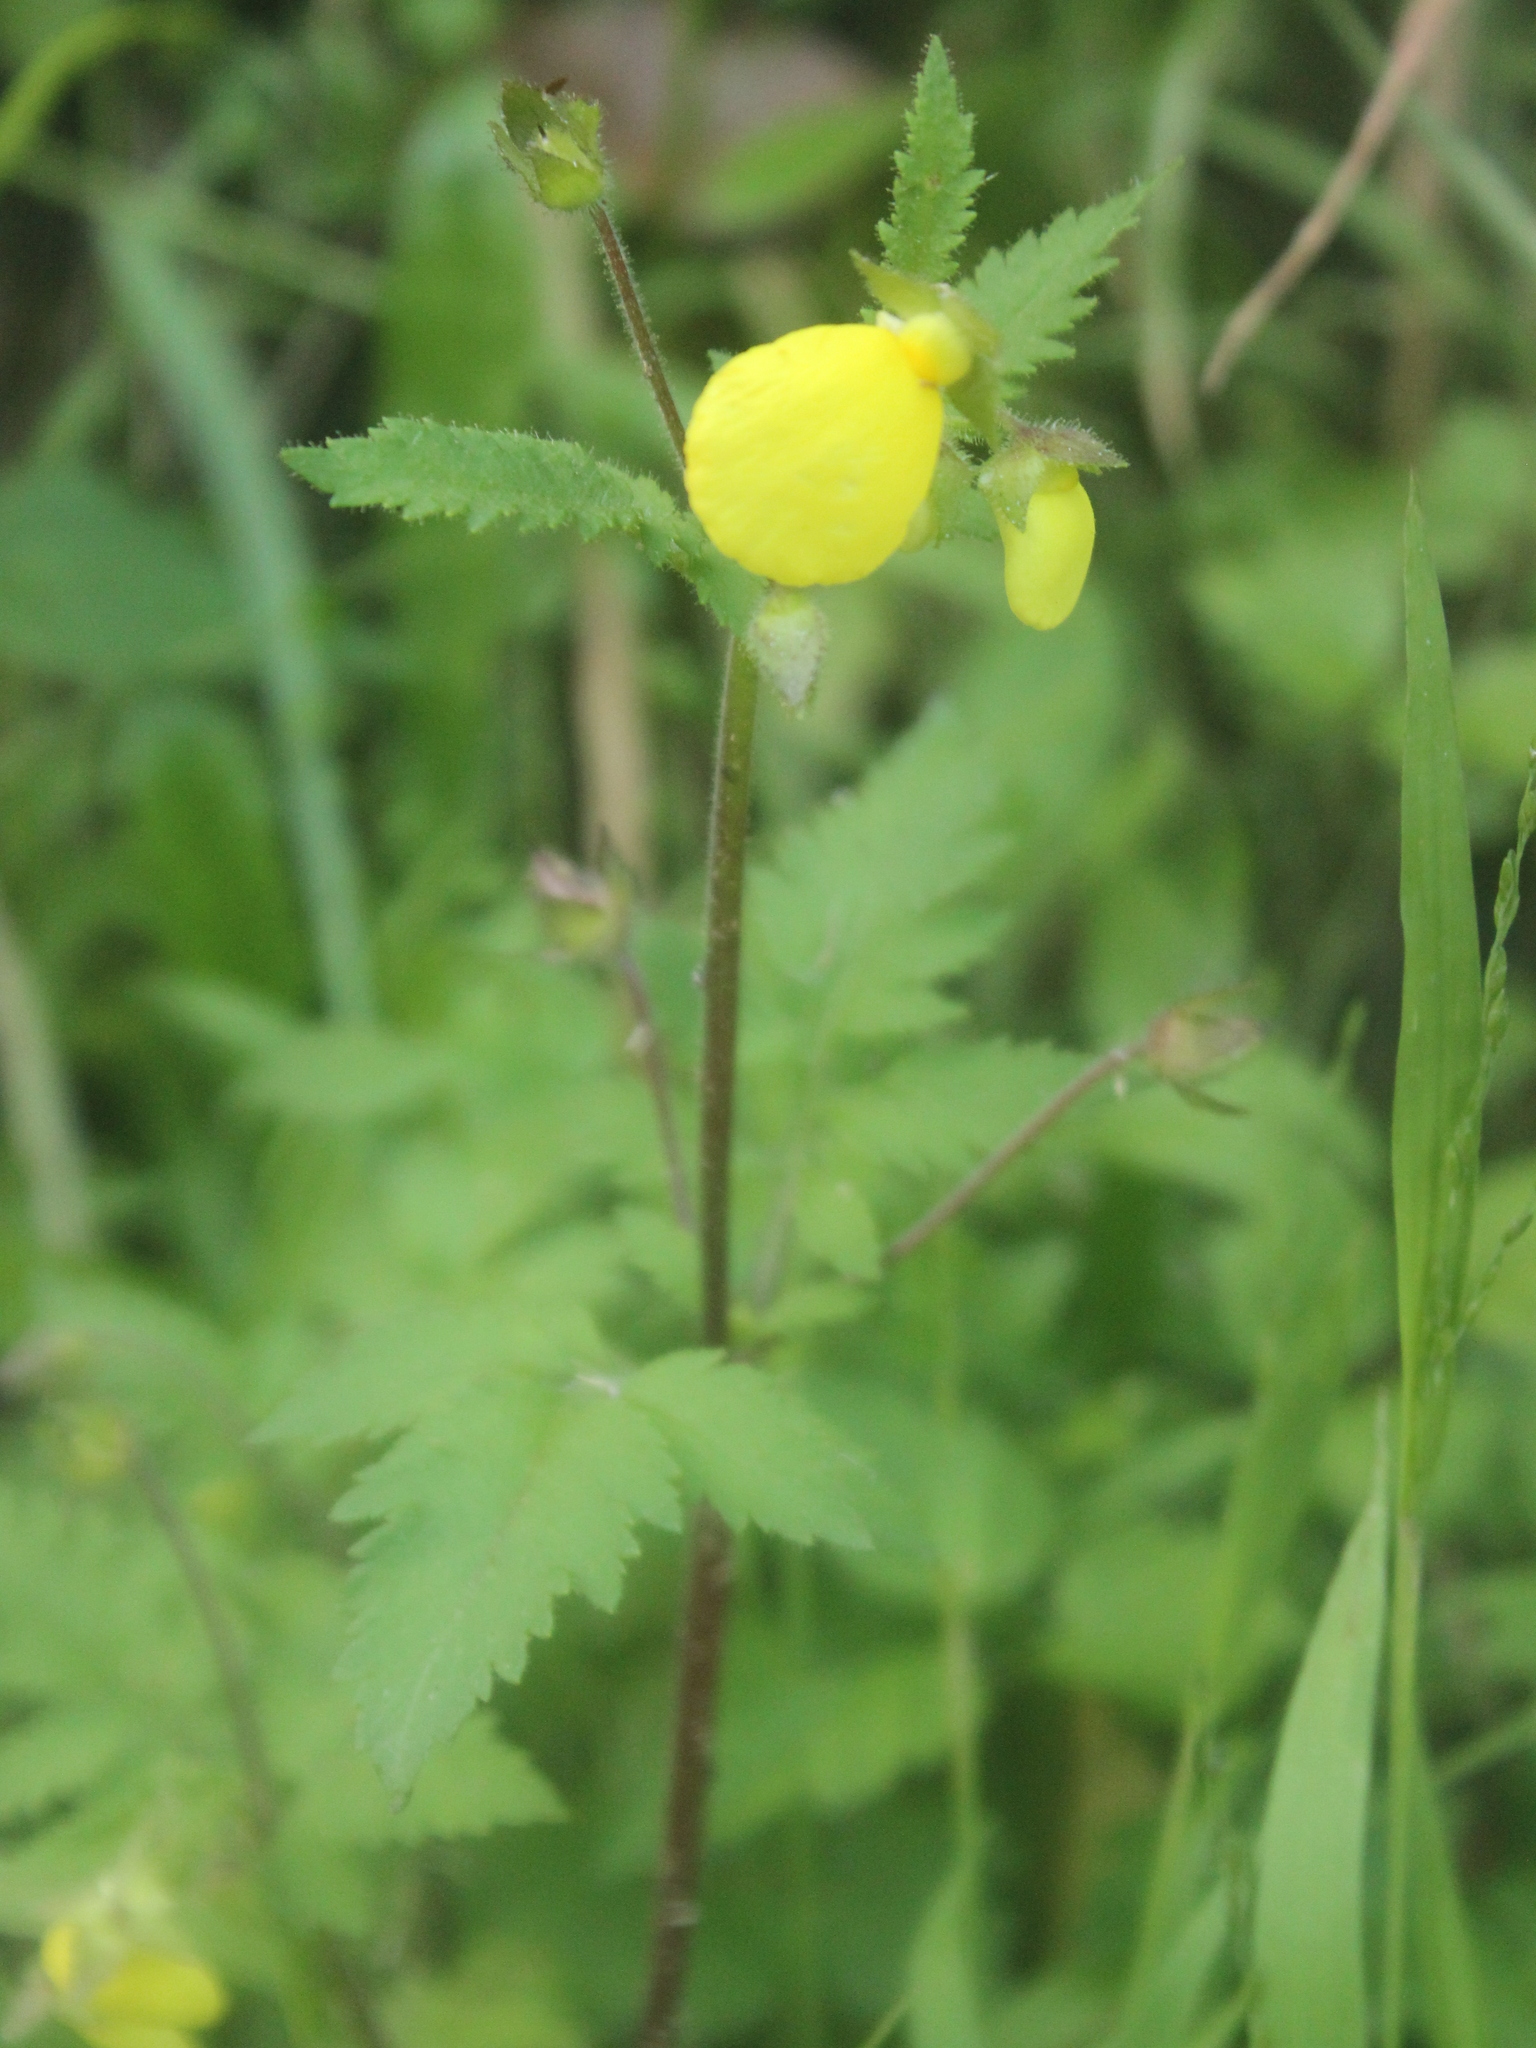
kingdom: Plantae
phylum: Tracheophyta
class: Magnoliopsida
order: Lamiales
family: Calceolariaceae
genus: Calceolaria
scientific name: Calceolaria tripartita
